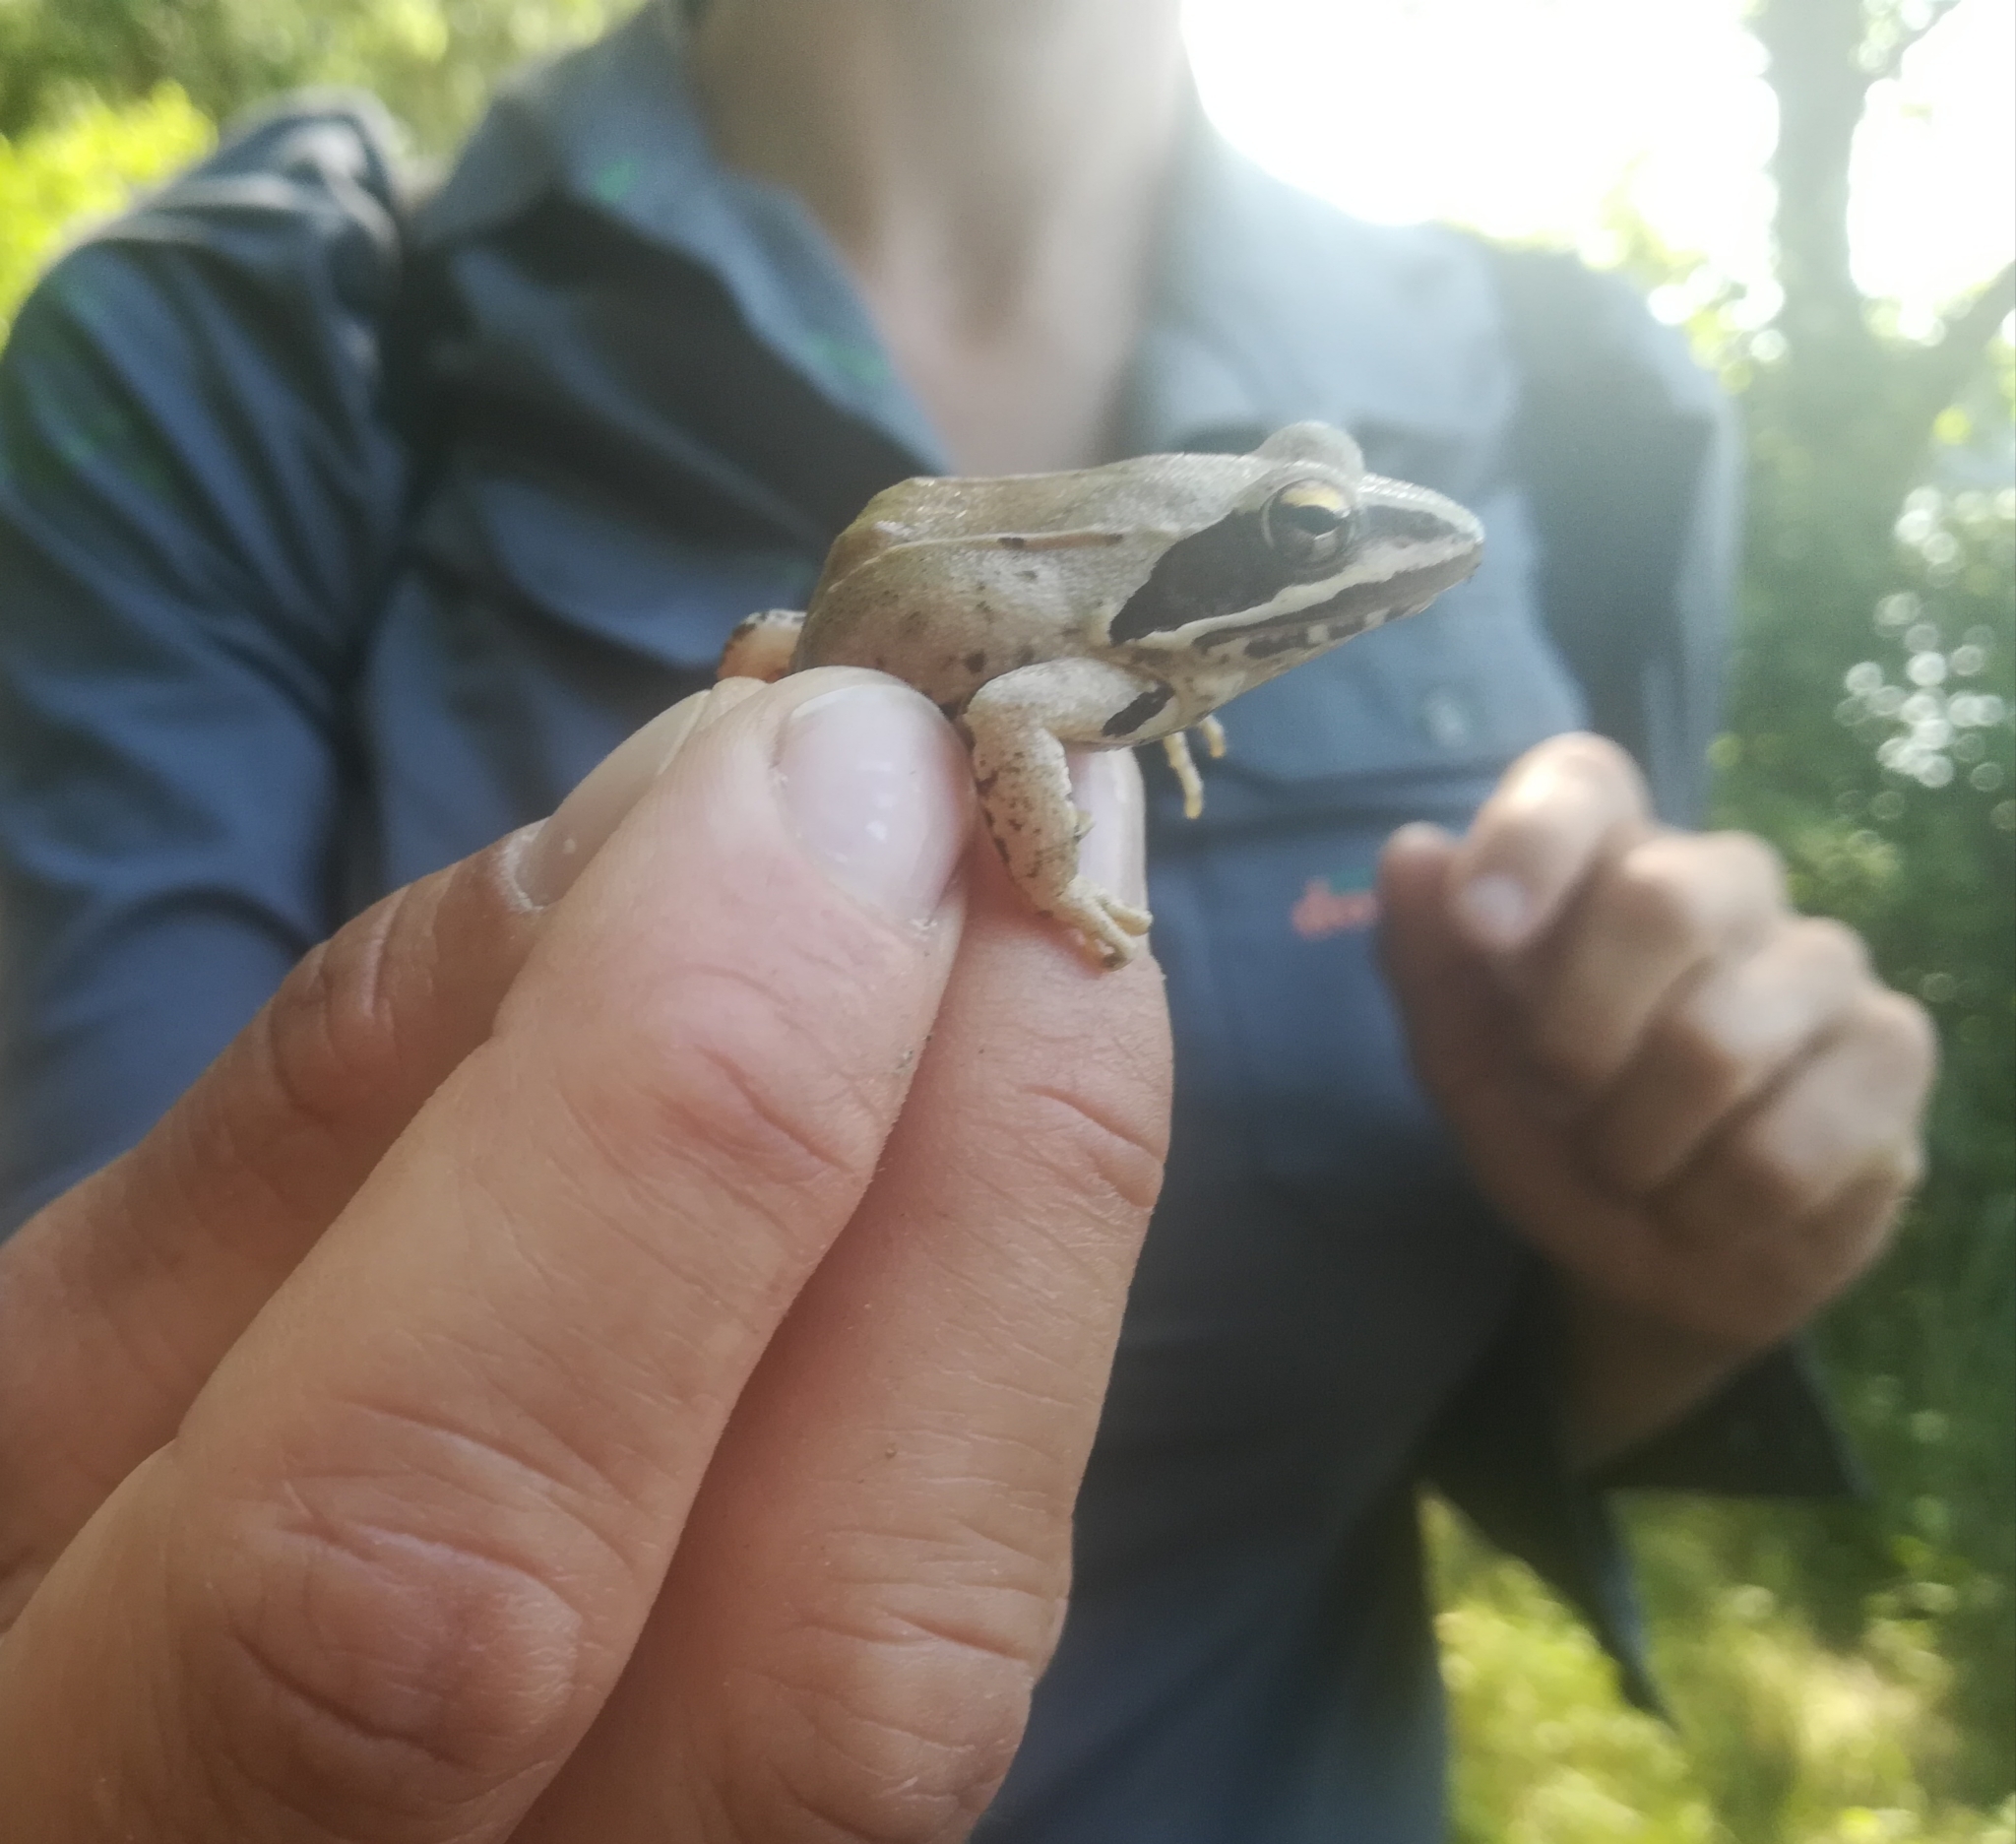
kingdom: Animalia
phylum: Chordata
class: Amphibia
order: Anura
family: Ranidae
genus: Rana
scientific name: Rana dalmatina
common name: Agile frog
